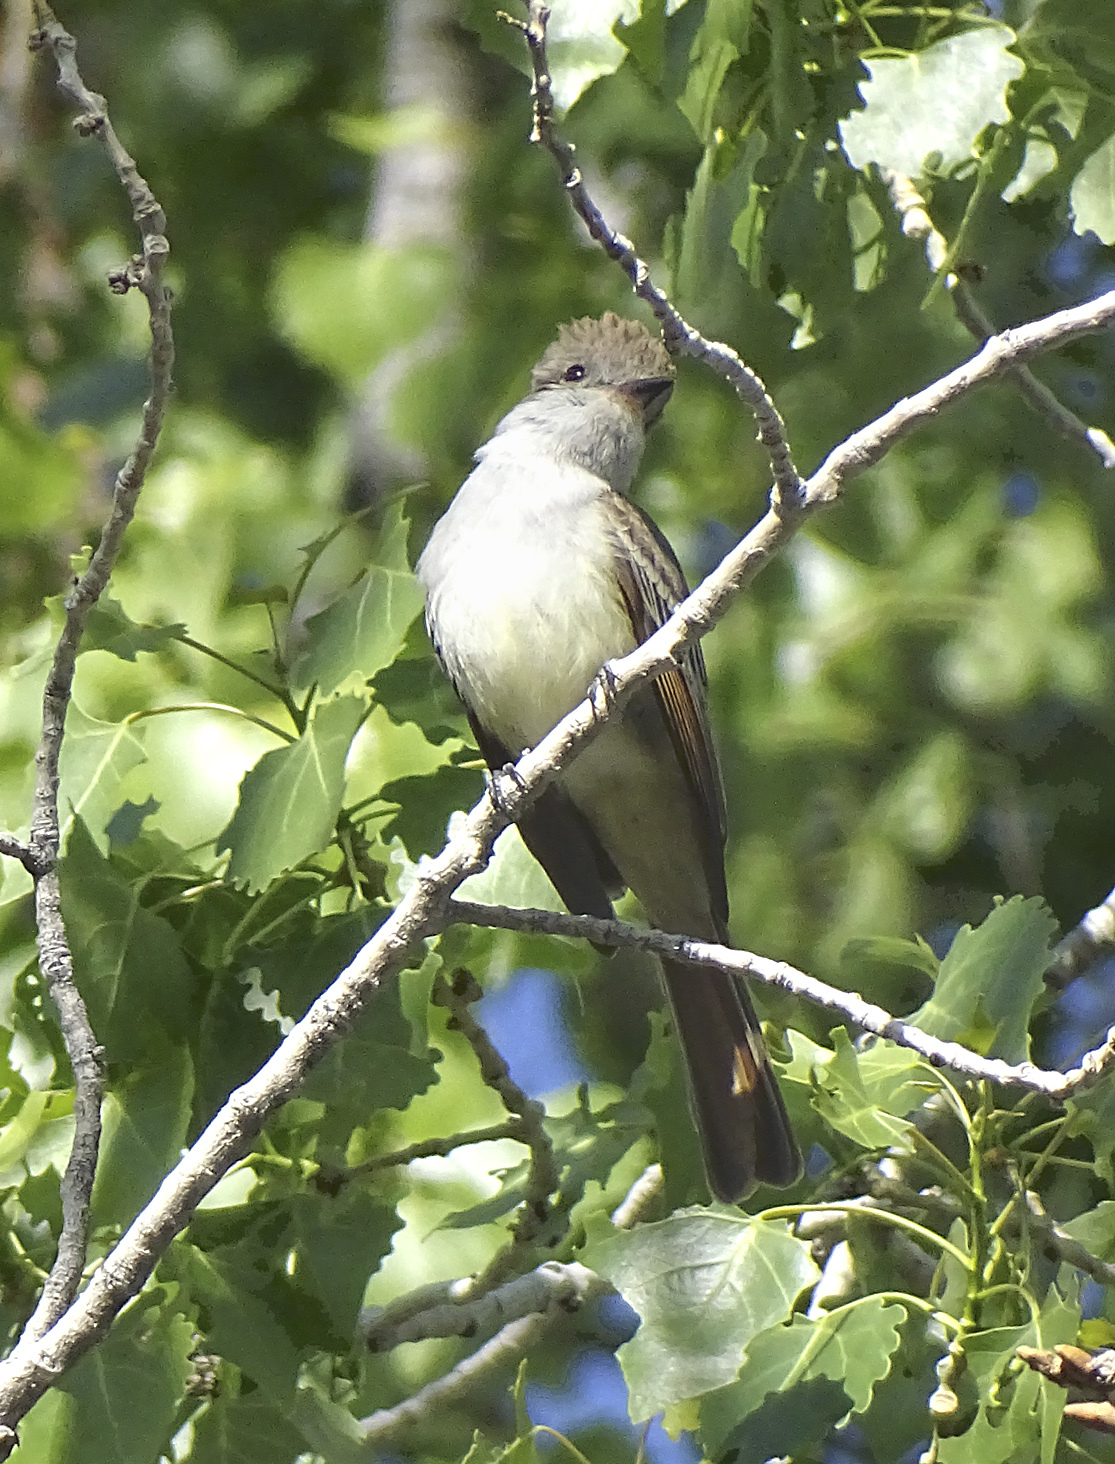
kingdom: Animalia
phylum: Chordata
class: Aves
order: Passeriformes
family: Tyrannidae
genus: Myiarchus
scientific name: Myiarchus cinerascens
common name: Ash-throated flycatcher
